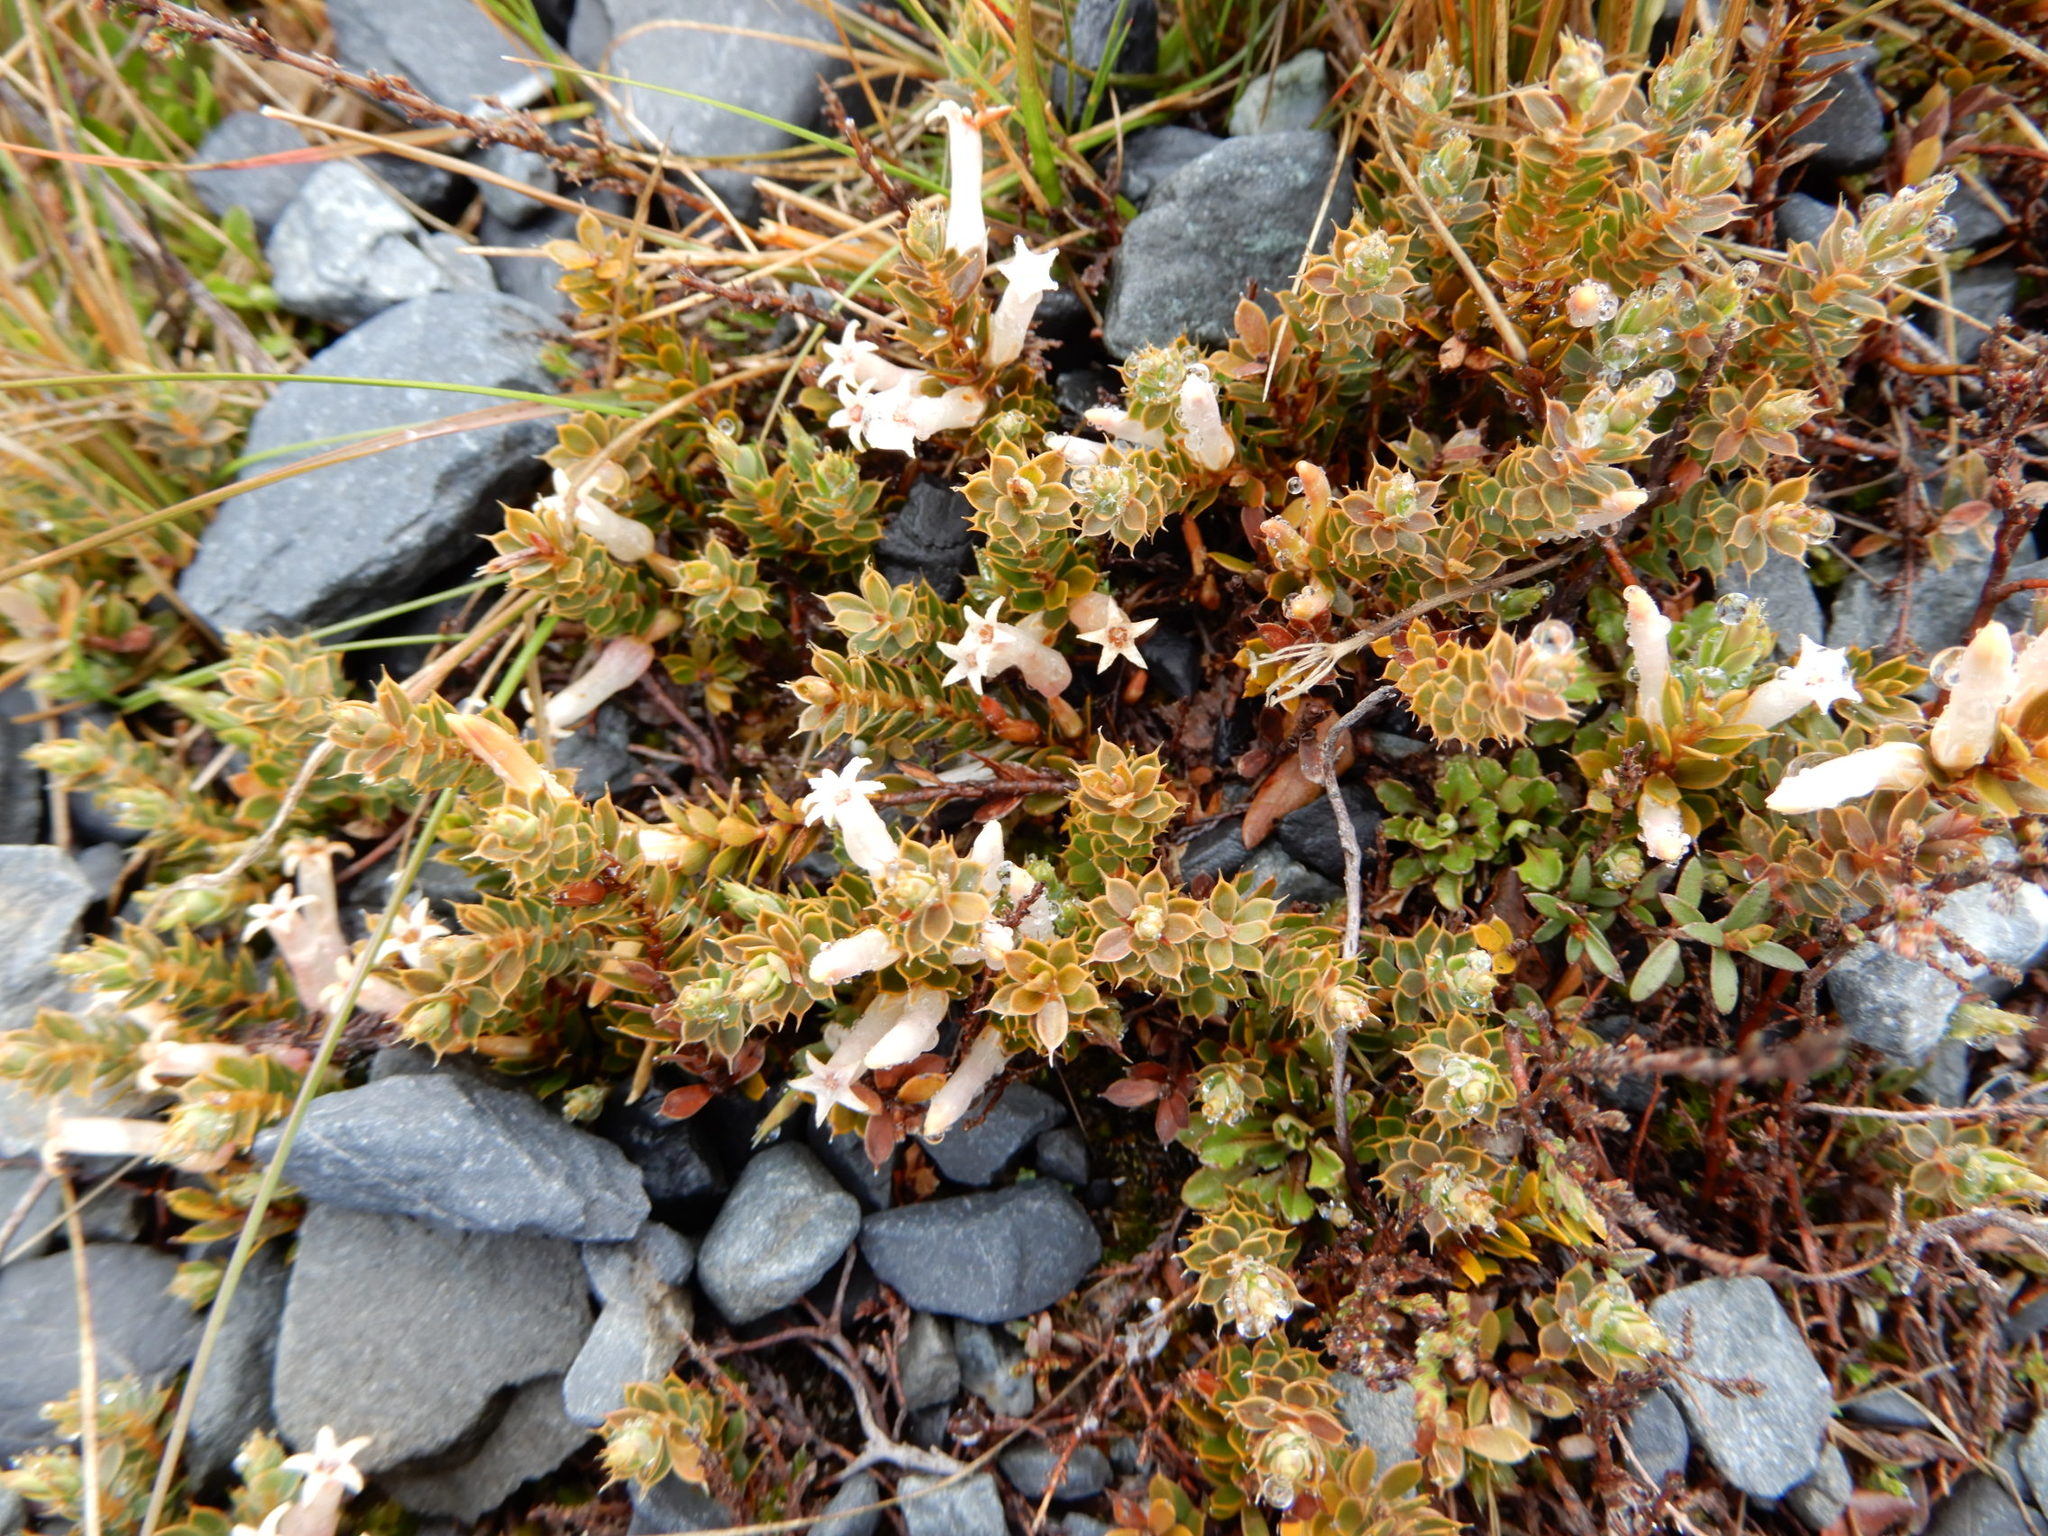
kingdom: Plantae
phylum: Tracheophyta
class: Magnoliopsida
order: Ericales
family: Ericaceae
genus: Styphelia
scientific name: Styphelia nesophila
